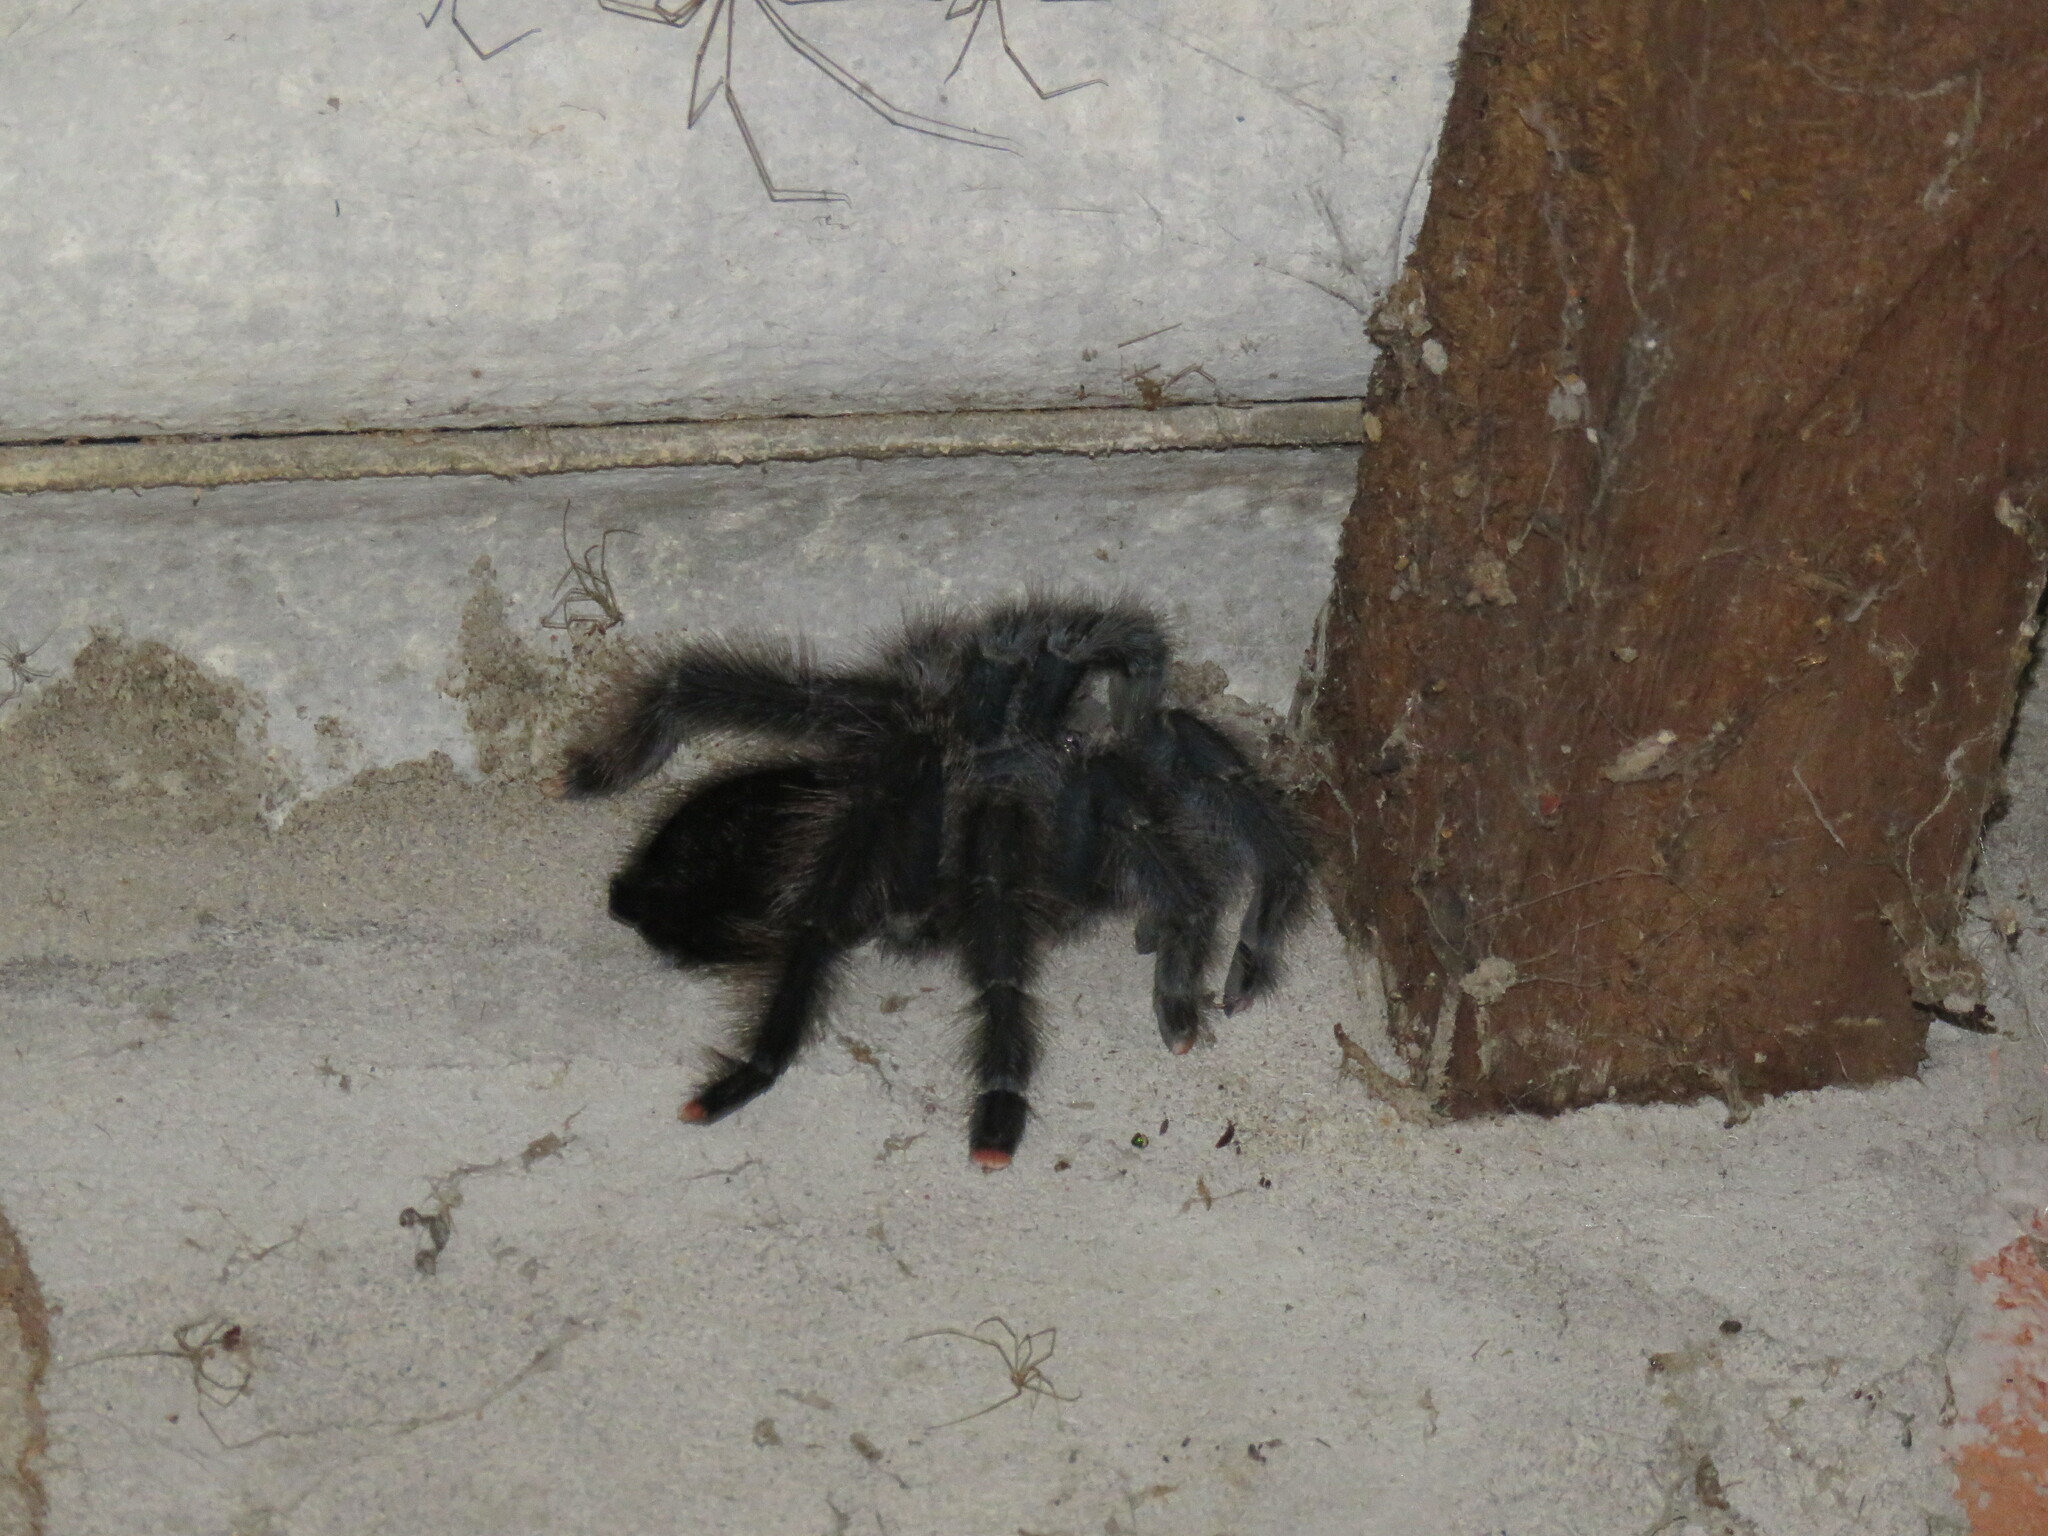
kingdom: Animalia
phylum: Arthropoda
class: Arachnida
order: Araneae
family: Theraphosidae
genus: Avicularia
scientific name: Avicularia avicularia
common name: Tarantula spiders
